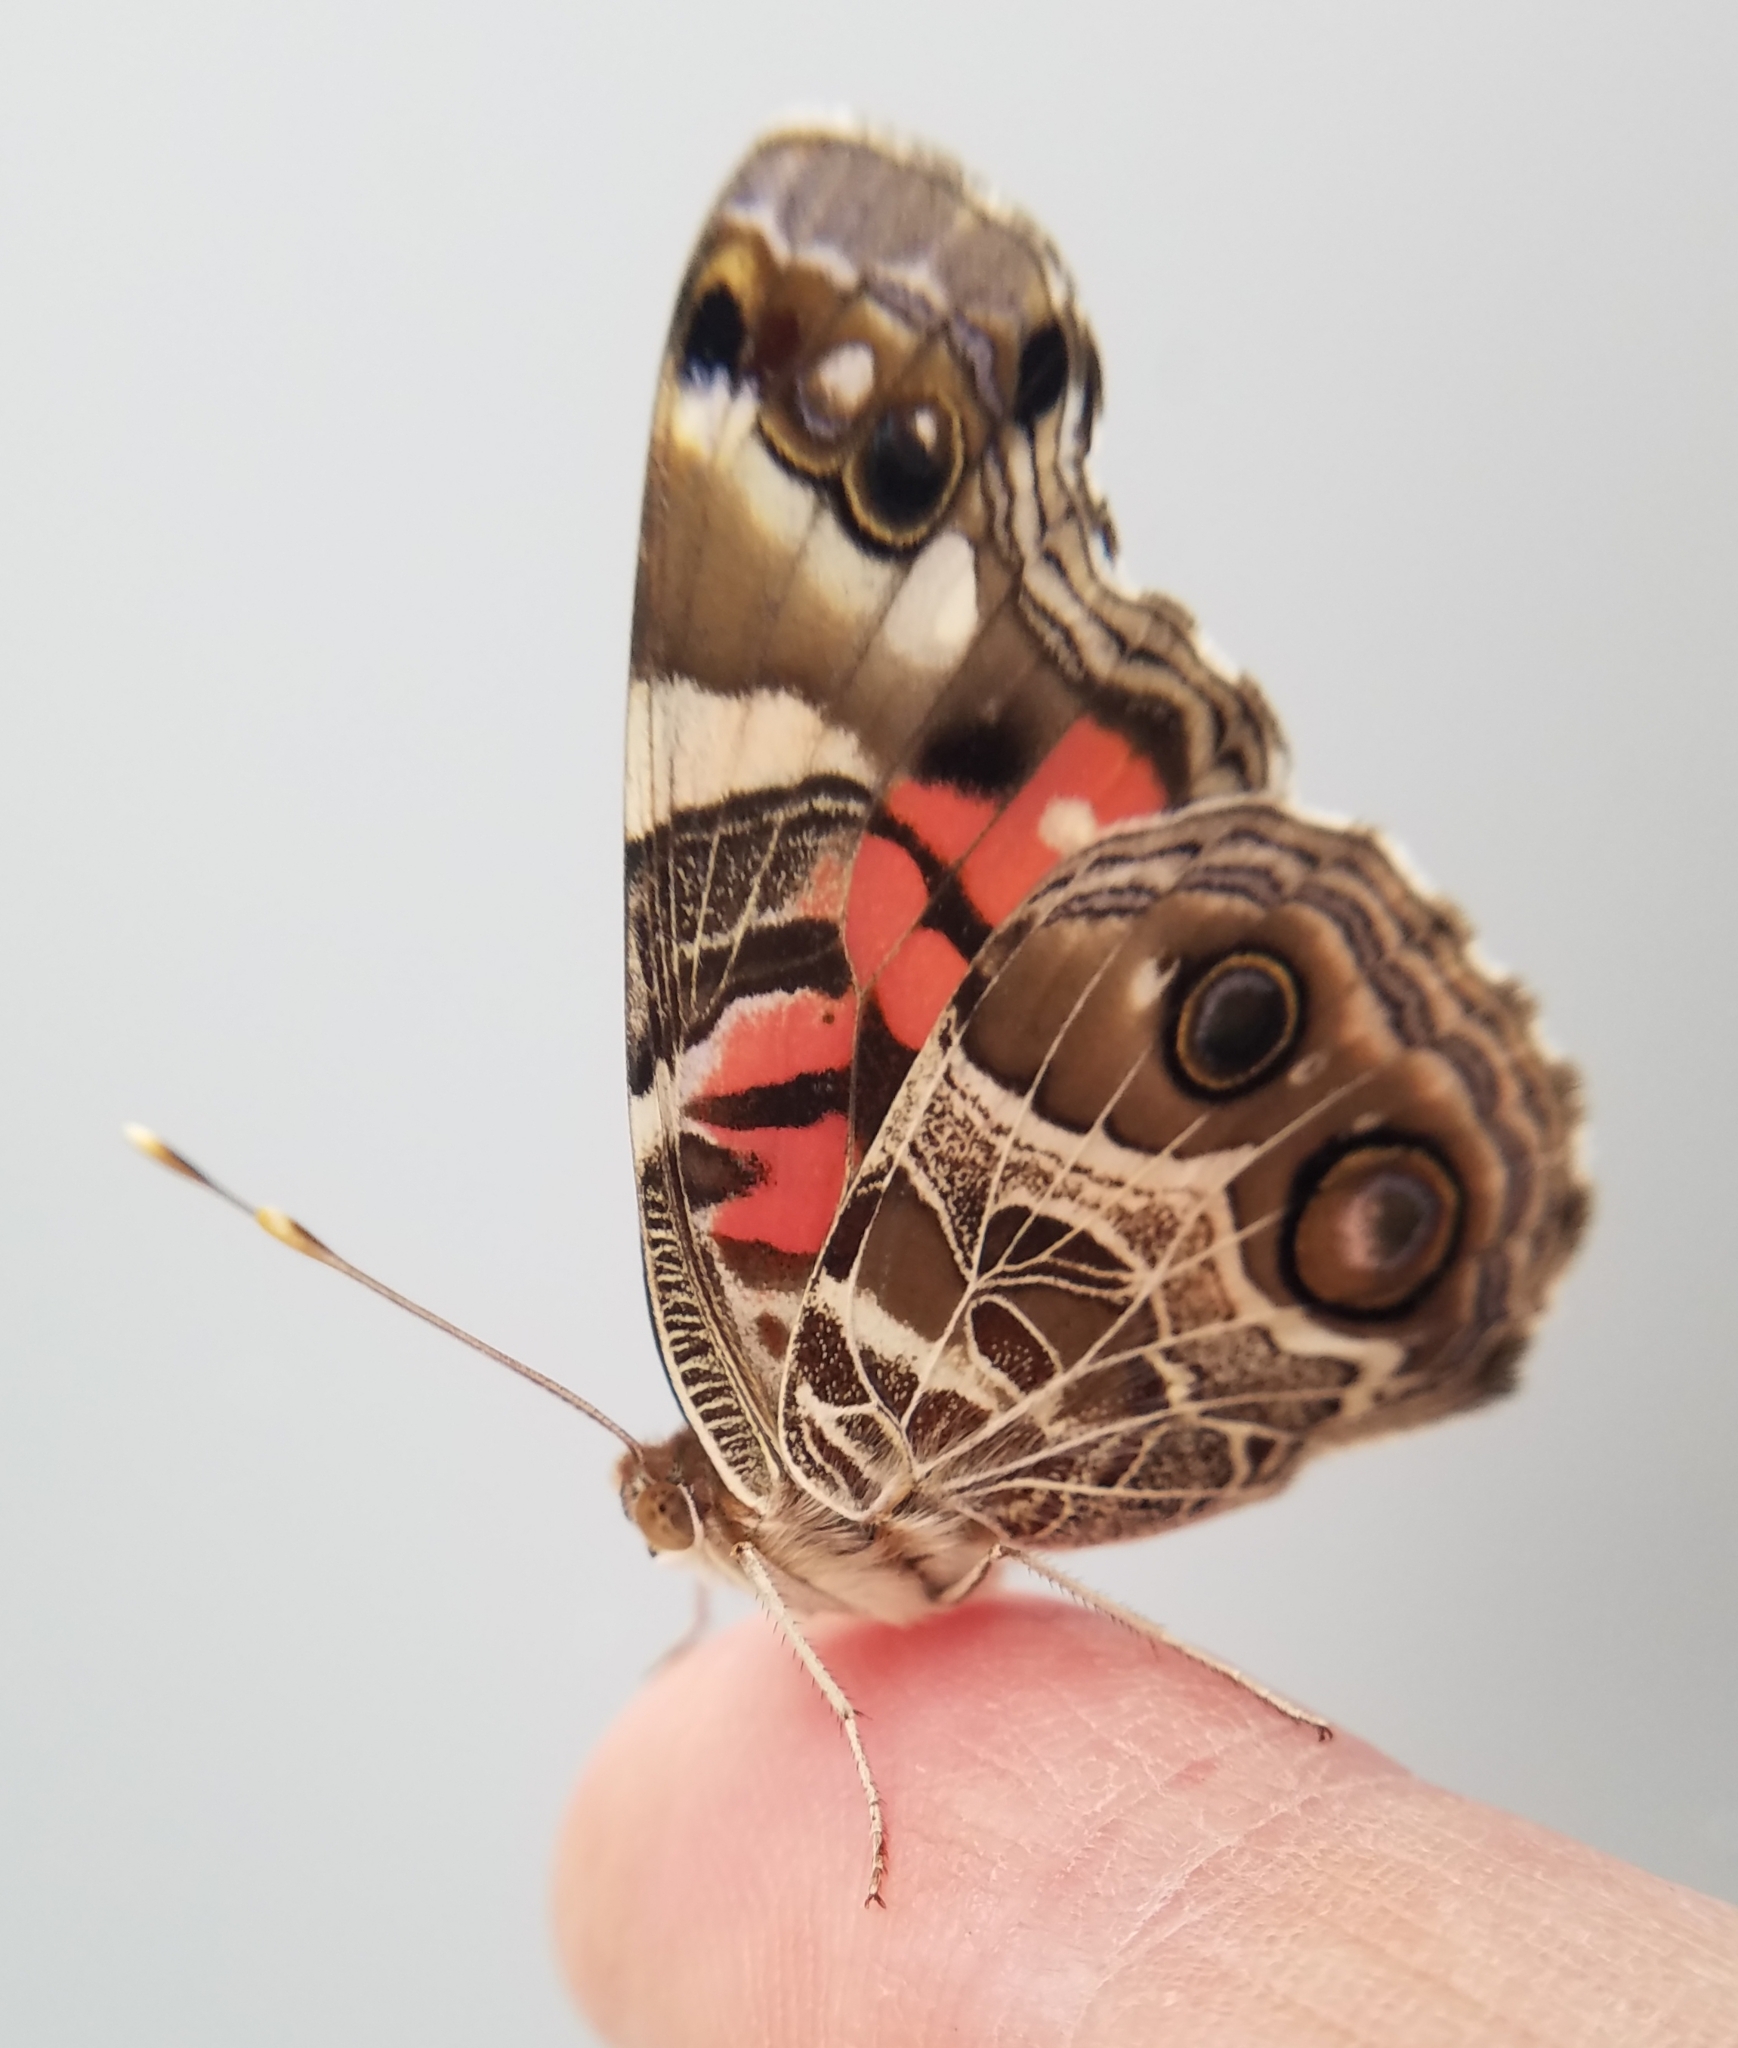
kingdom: Animalia
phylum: Arthropoda
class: Insecta
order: Lepidoptera
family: Nymphalidae
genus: Vanessa
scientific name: Vanessa virginiensis
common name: American lady
